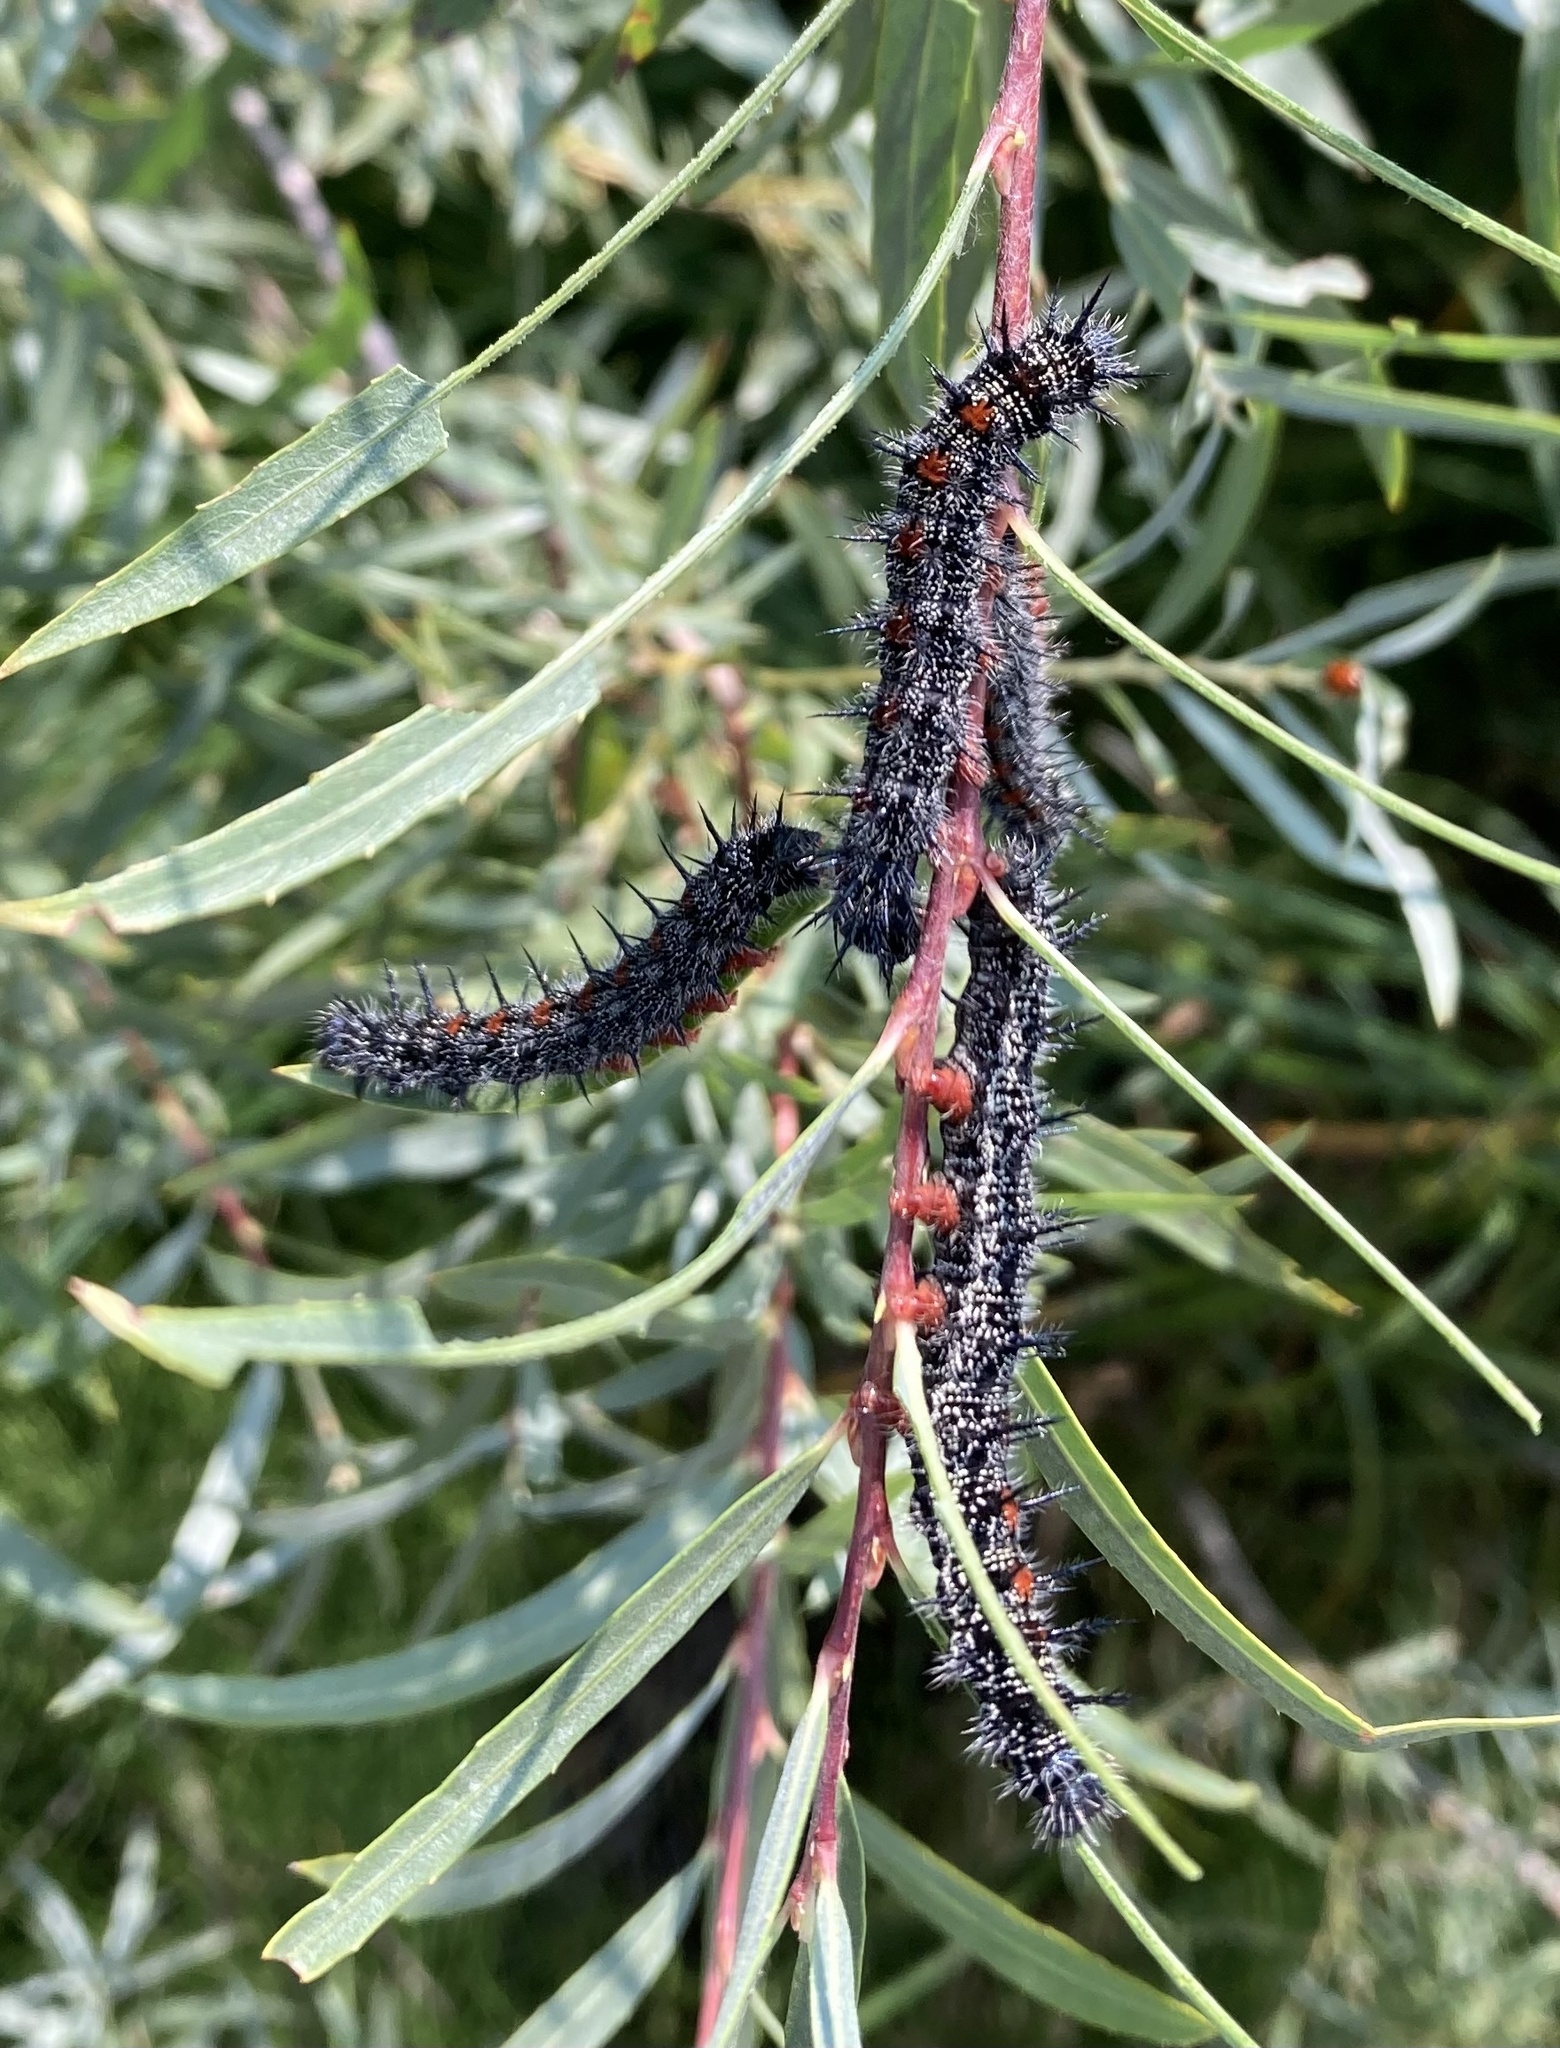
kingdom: Animalia
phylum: Arthropoda
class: Insecta
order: Lepidoptera
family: Nymphalidae
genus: Nymphalis
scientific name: Nymphalis antiopa
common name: Camberwell beauty
